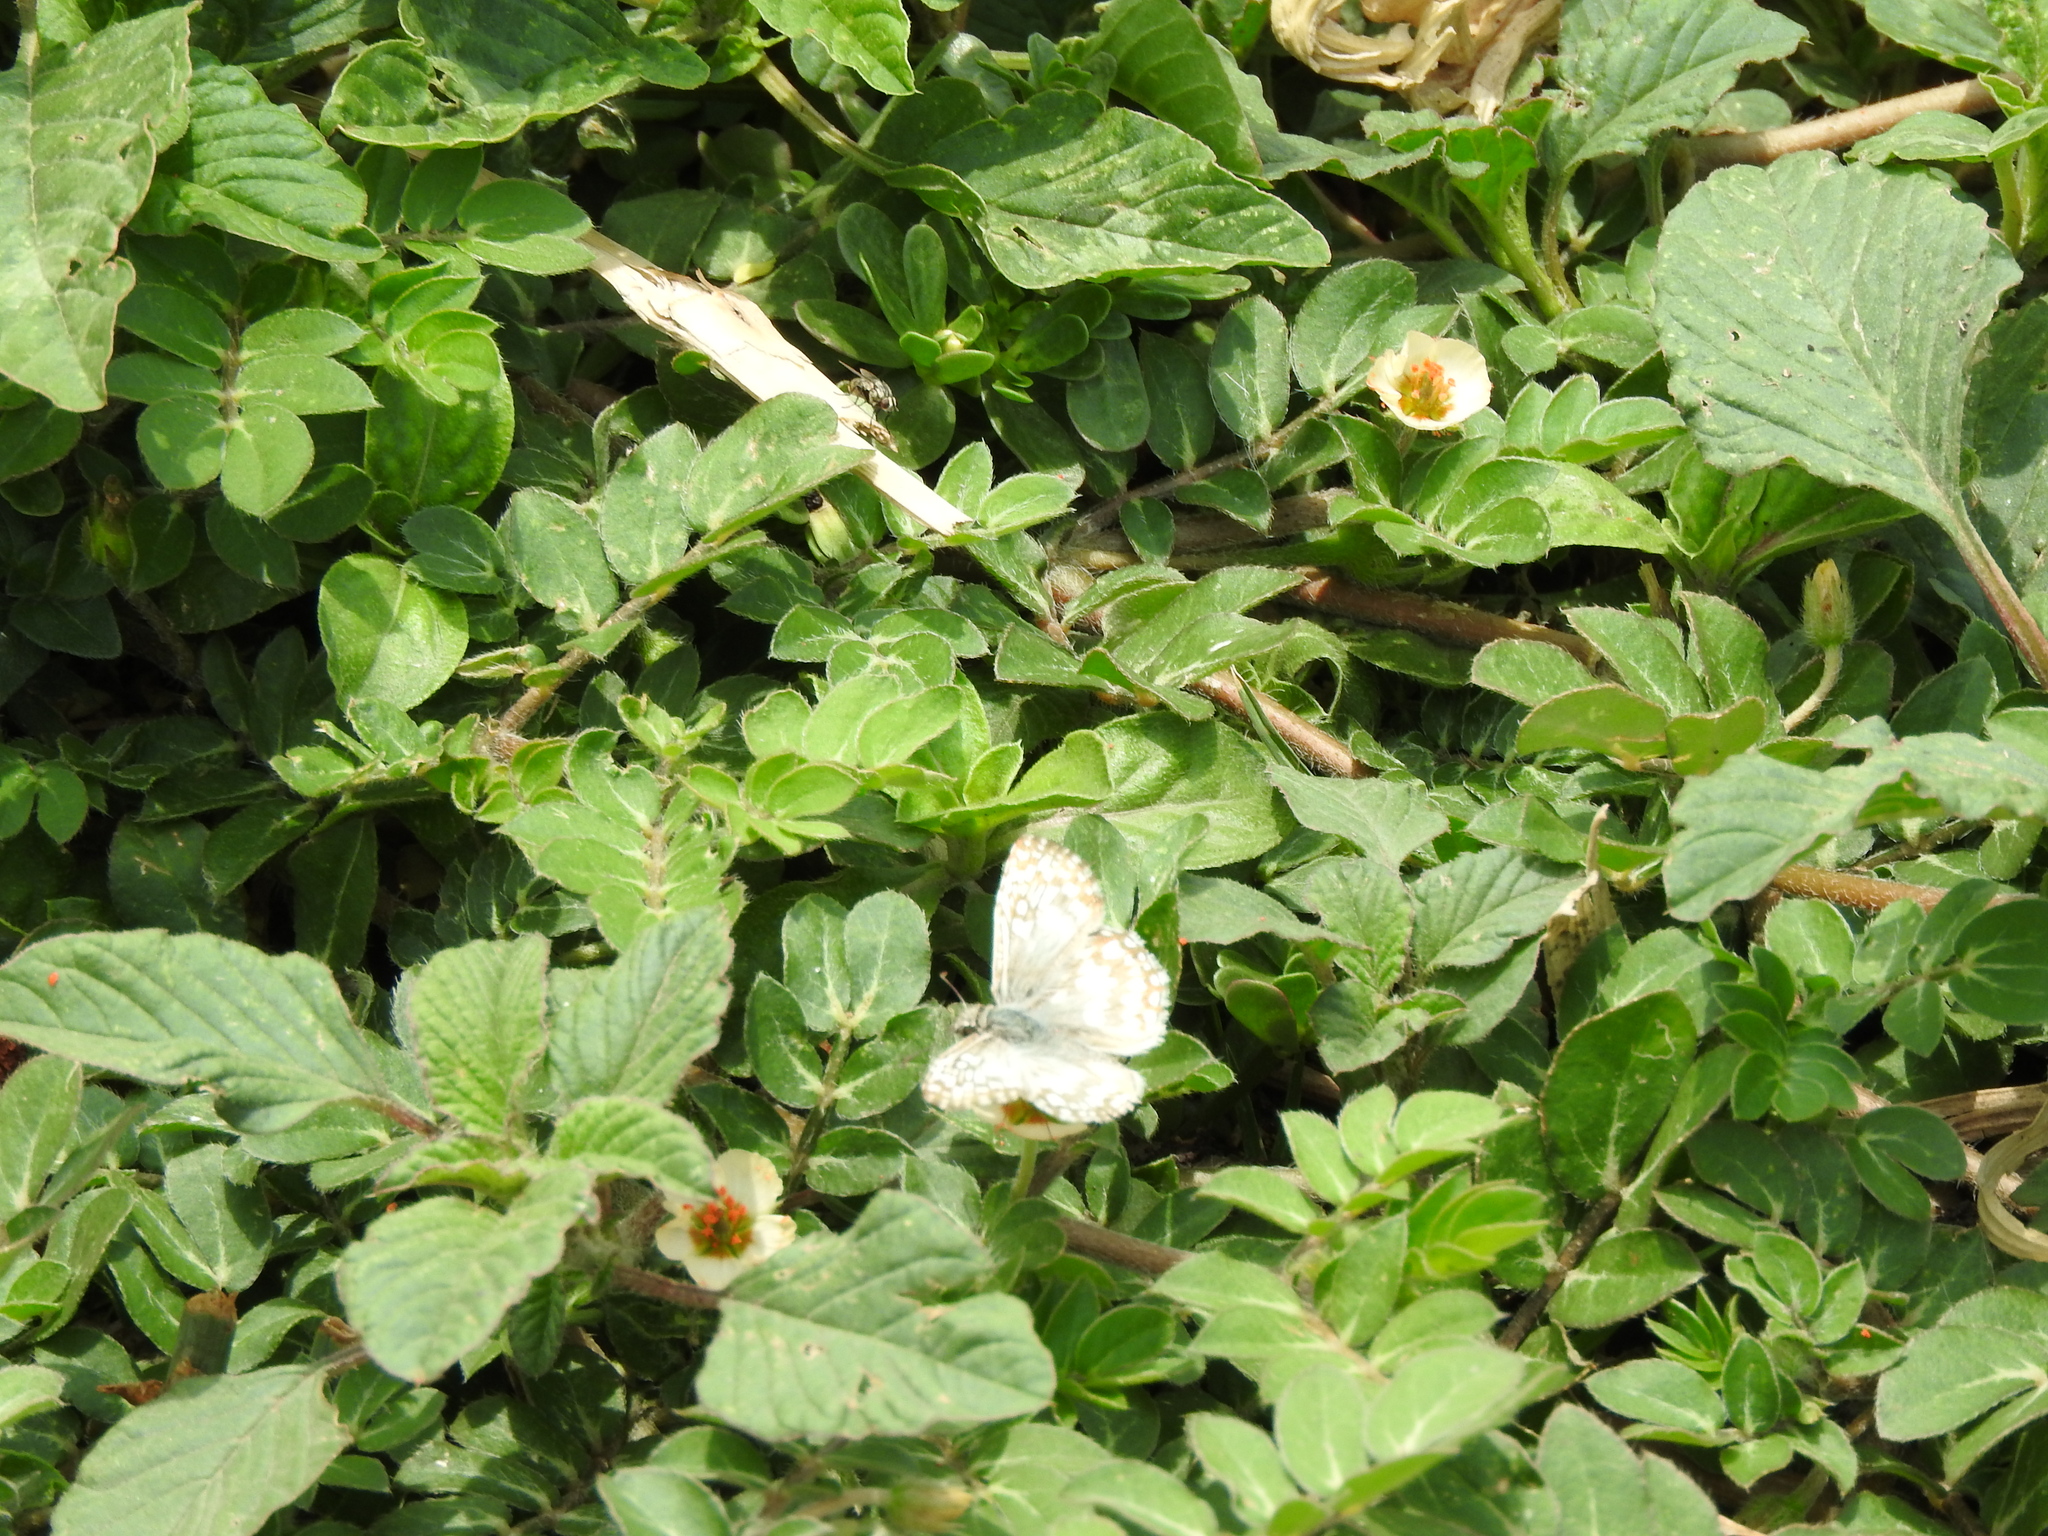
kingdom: Animalia
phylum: Arthropoda
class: Insecta
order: Lepidoptera
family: Hesperiidae
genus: Pyrgus
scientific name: Pyrgus oileus
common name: Tropical checkered-skipper
